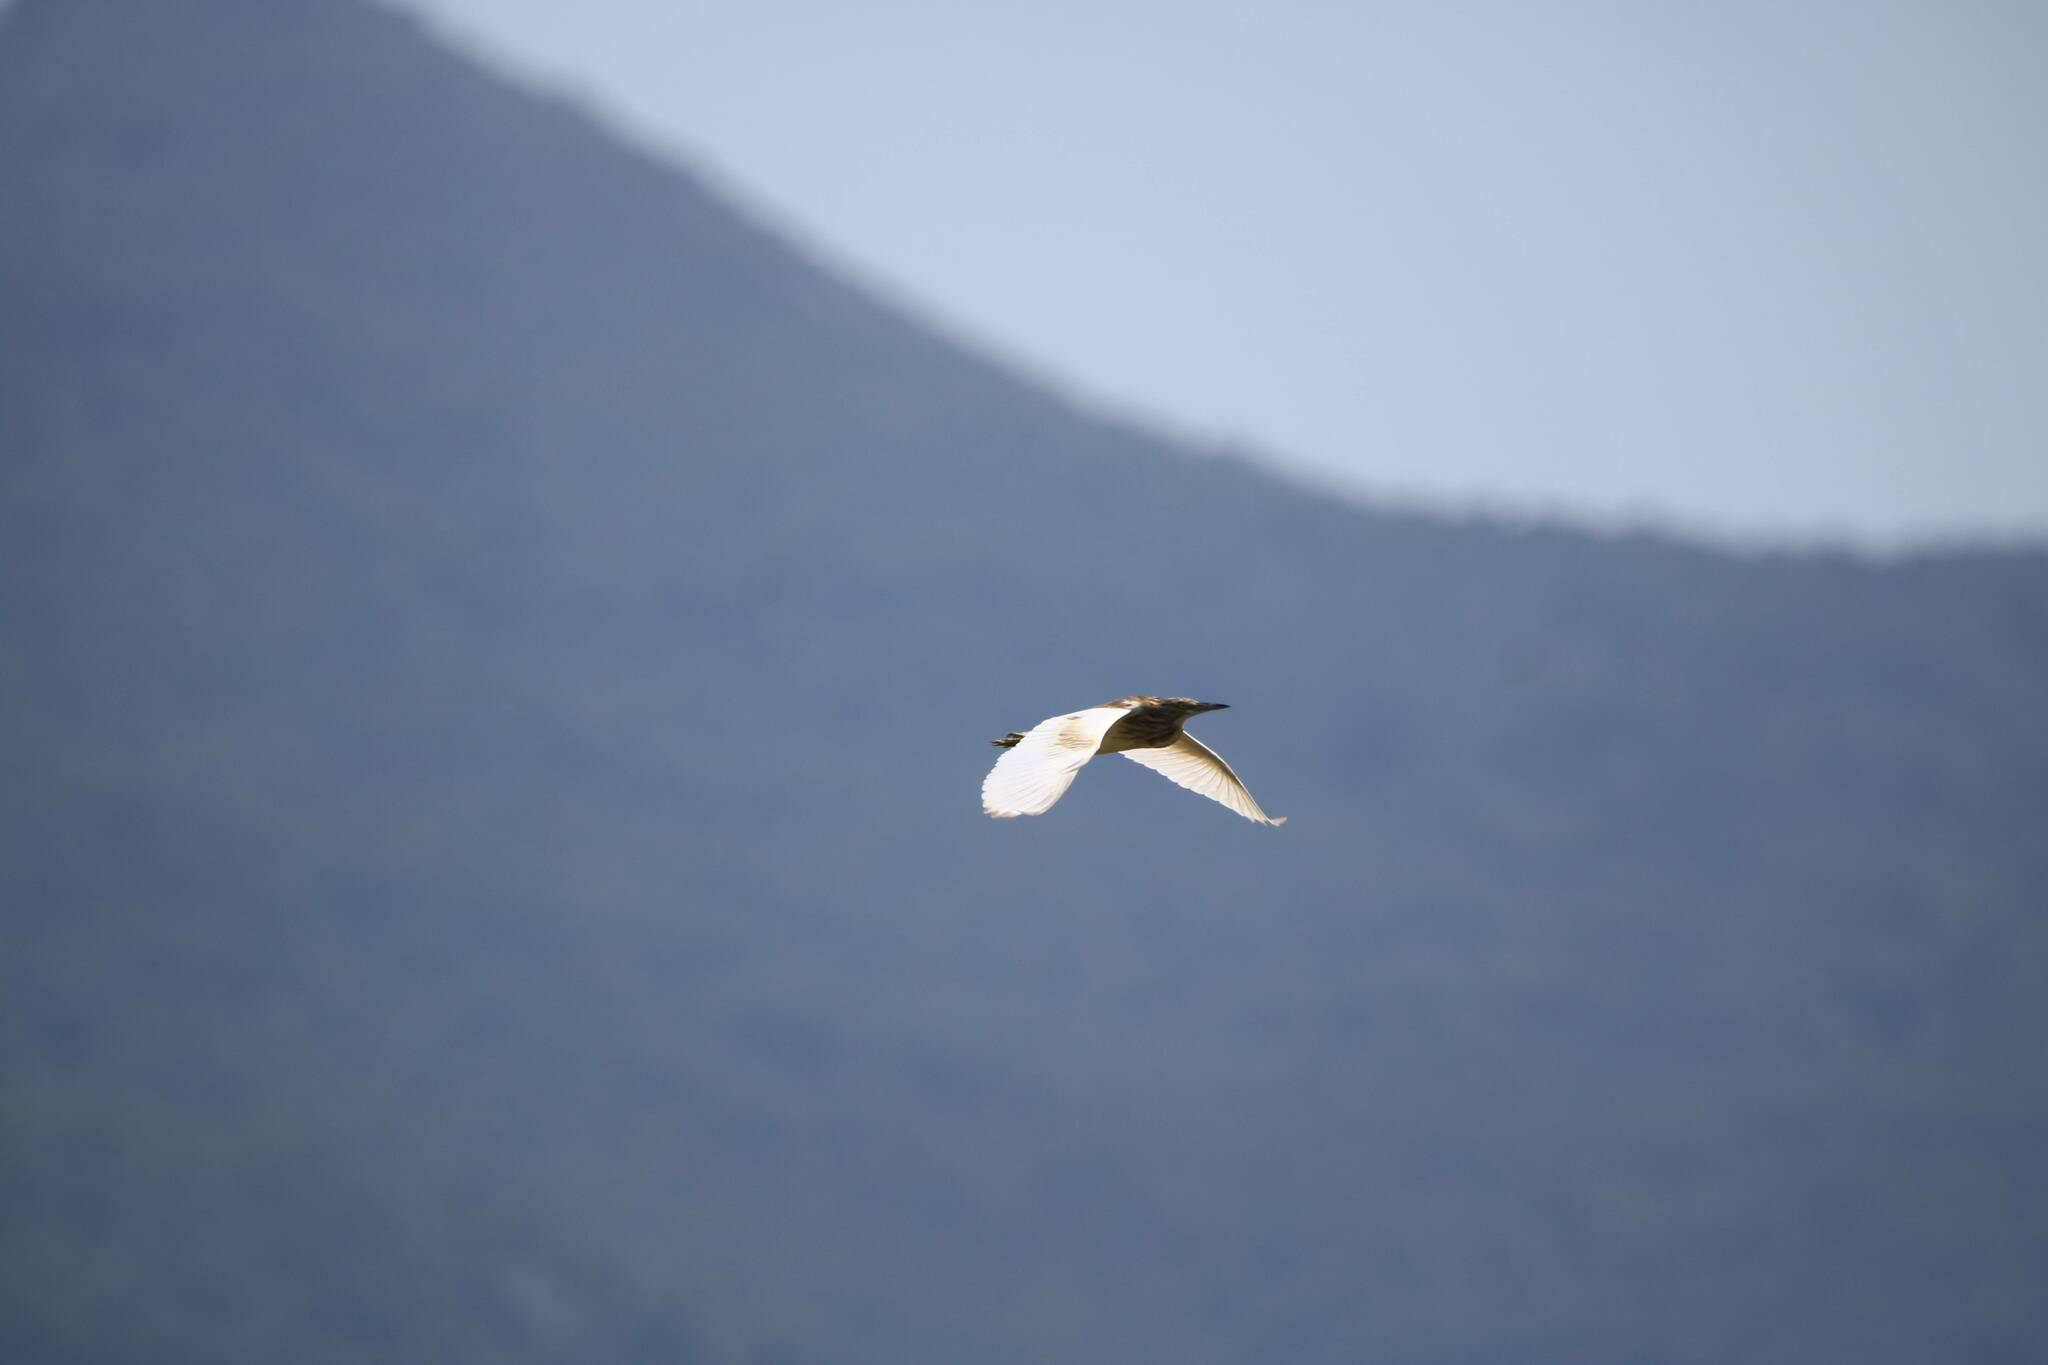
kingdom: Animalia
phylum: Chordata
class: Aves
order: Pelecaniformes
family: Ardeidae
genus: Ardeola
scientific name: Ardeola ralloides
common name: Squacco heron
